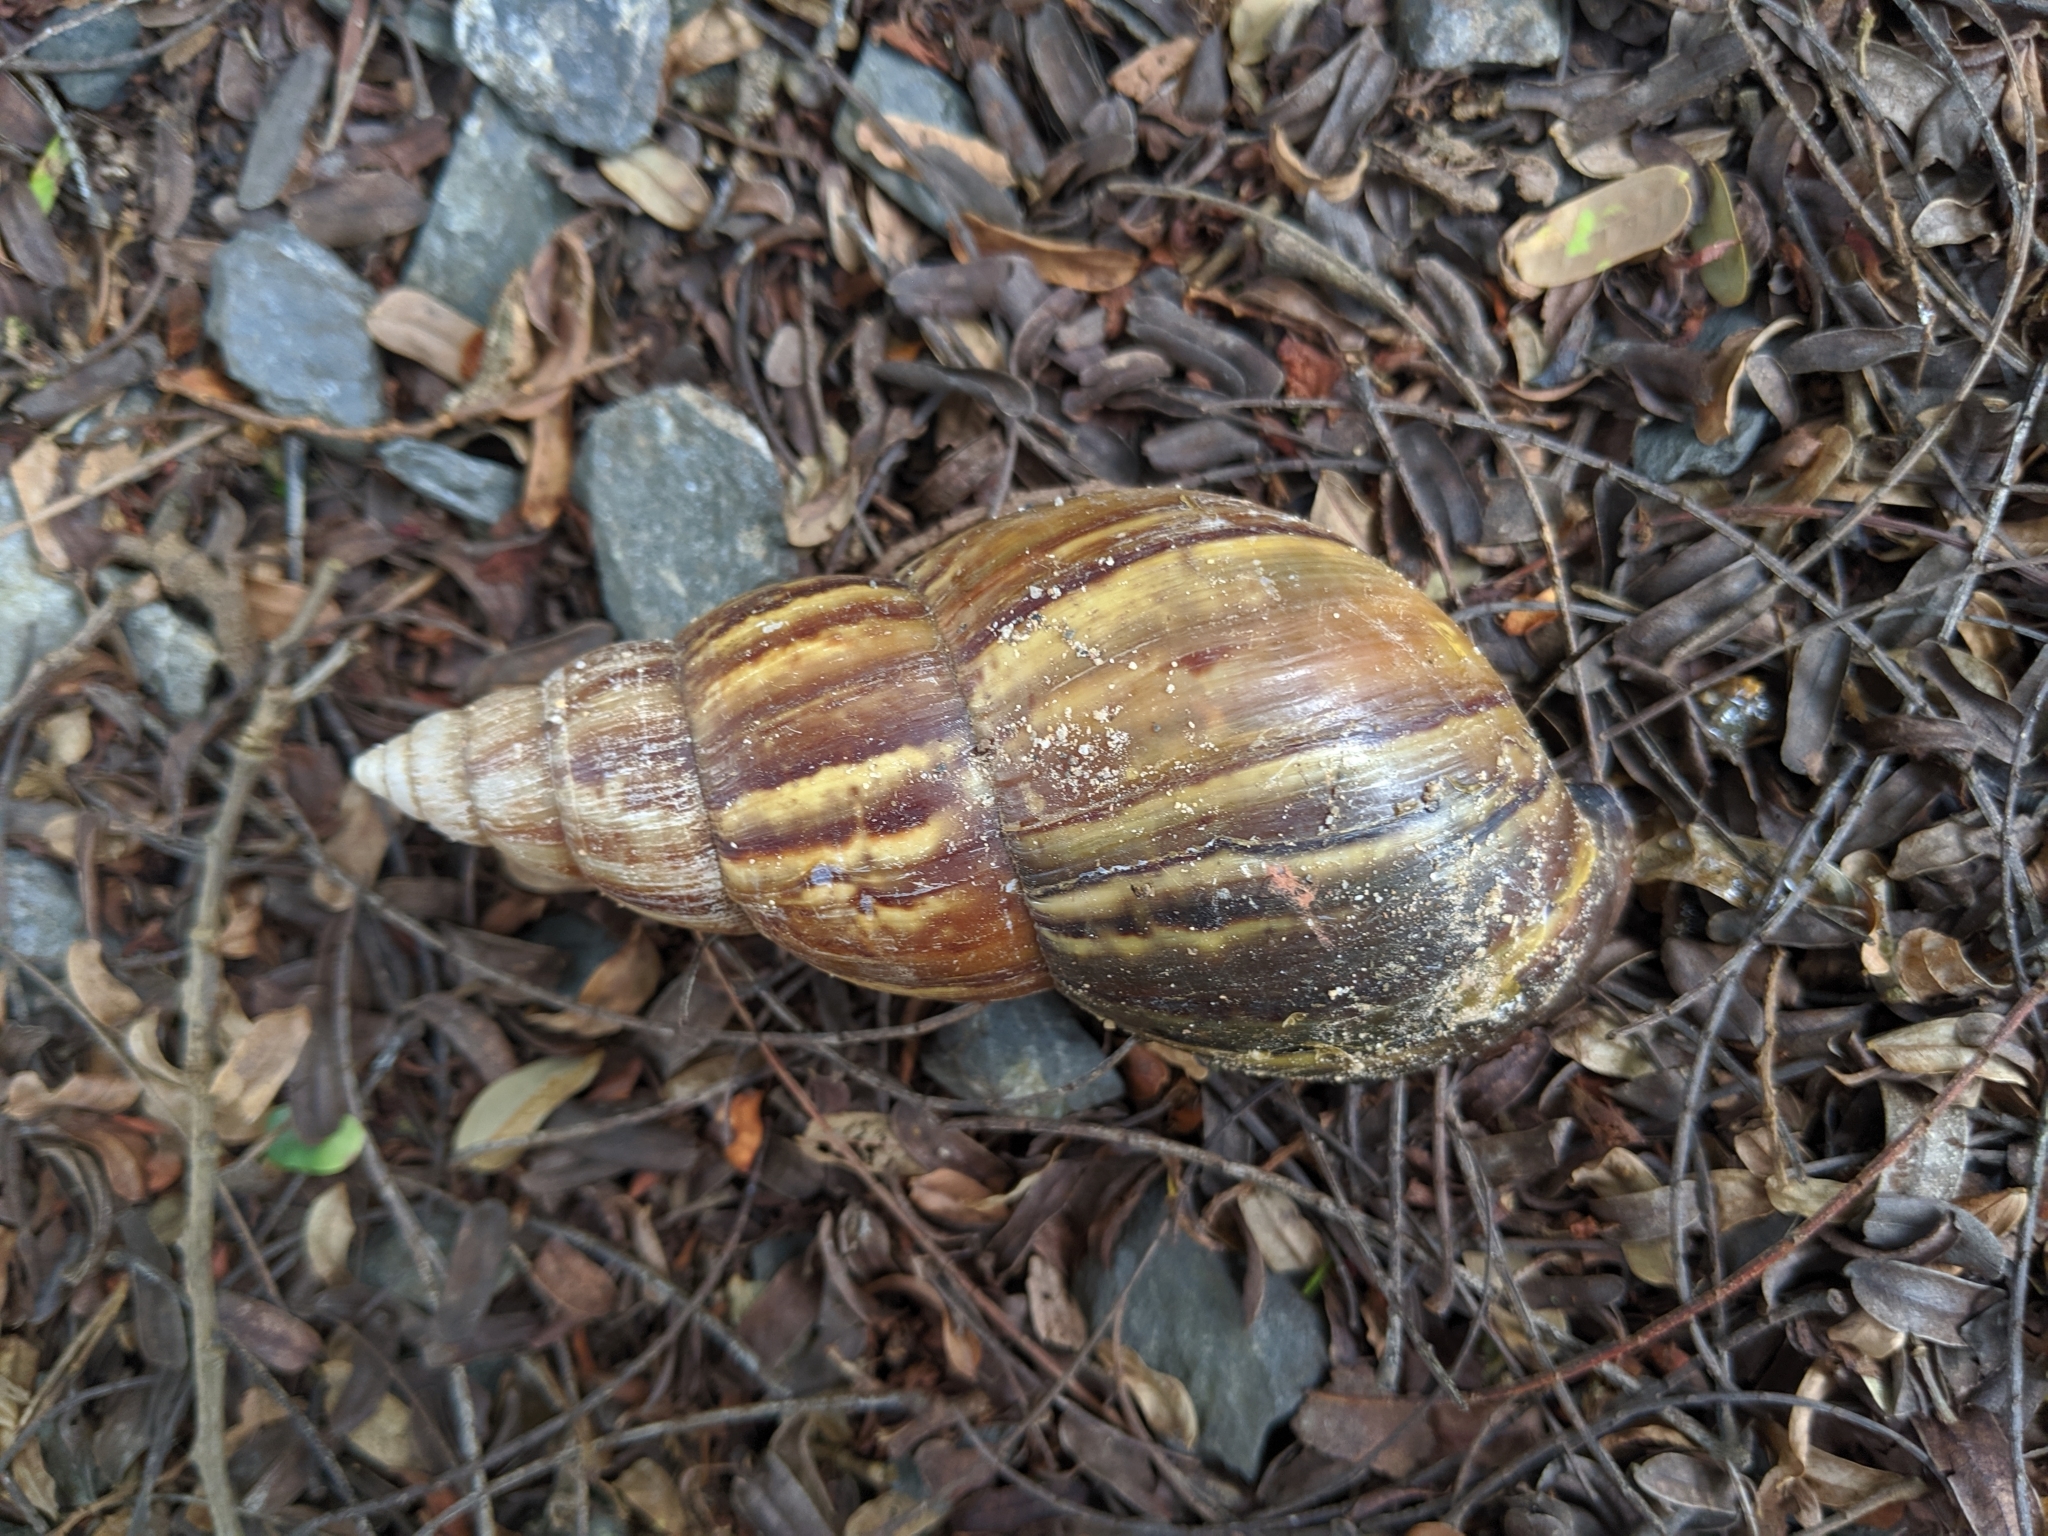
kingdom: Animalia
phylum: Mollusca
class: Gastropoda
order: Stylommatophora
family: Achatinidae
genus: Lissachatina
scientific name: Lissachatina fulica
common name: Giant african snail
